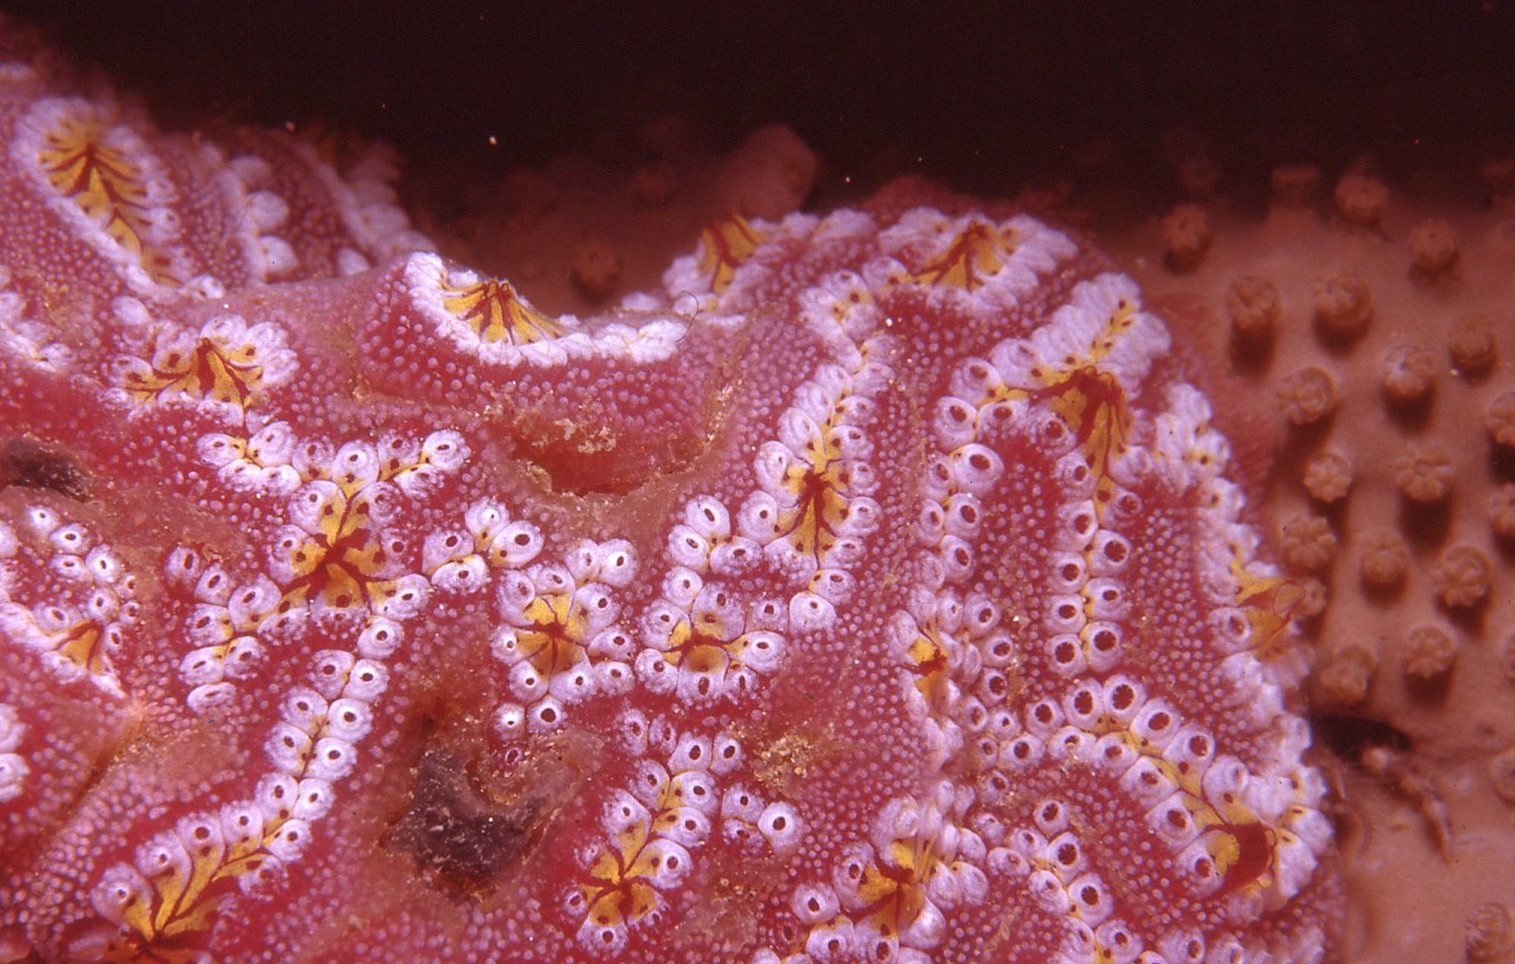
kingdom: Animalia
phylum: Chordata
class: Ascidiacea
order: Stolidobranchia
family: Styelidae
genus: Botrylloides
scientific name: Botrylloides leachii
